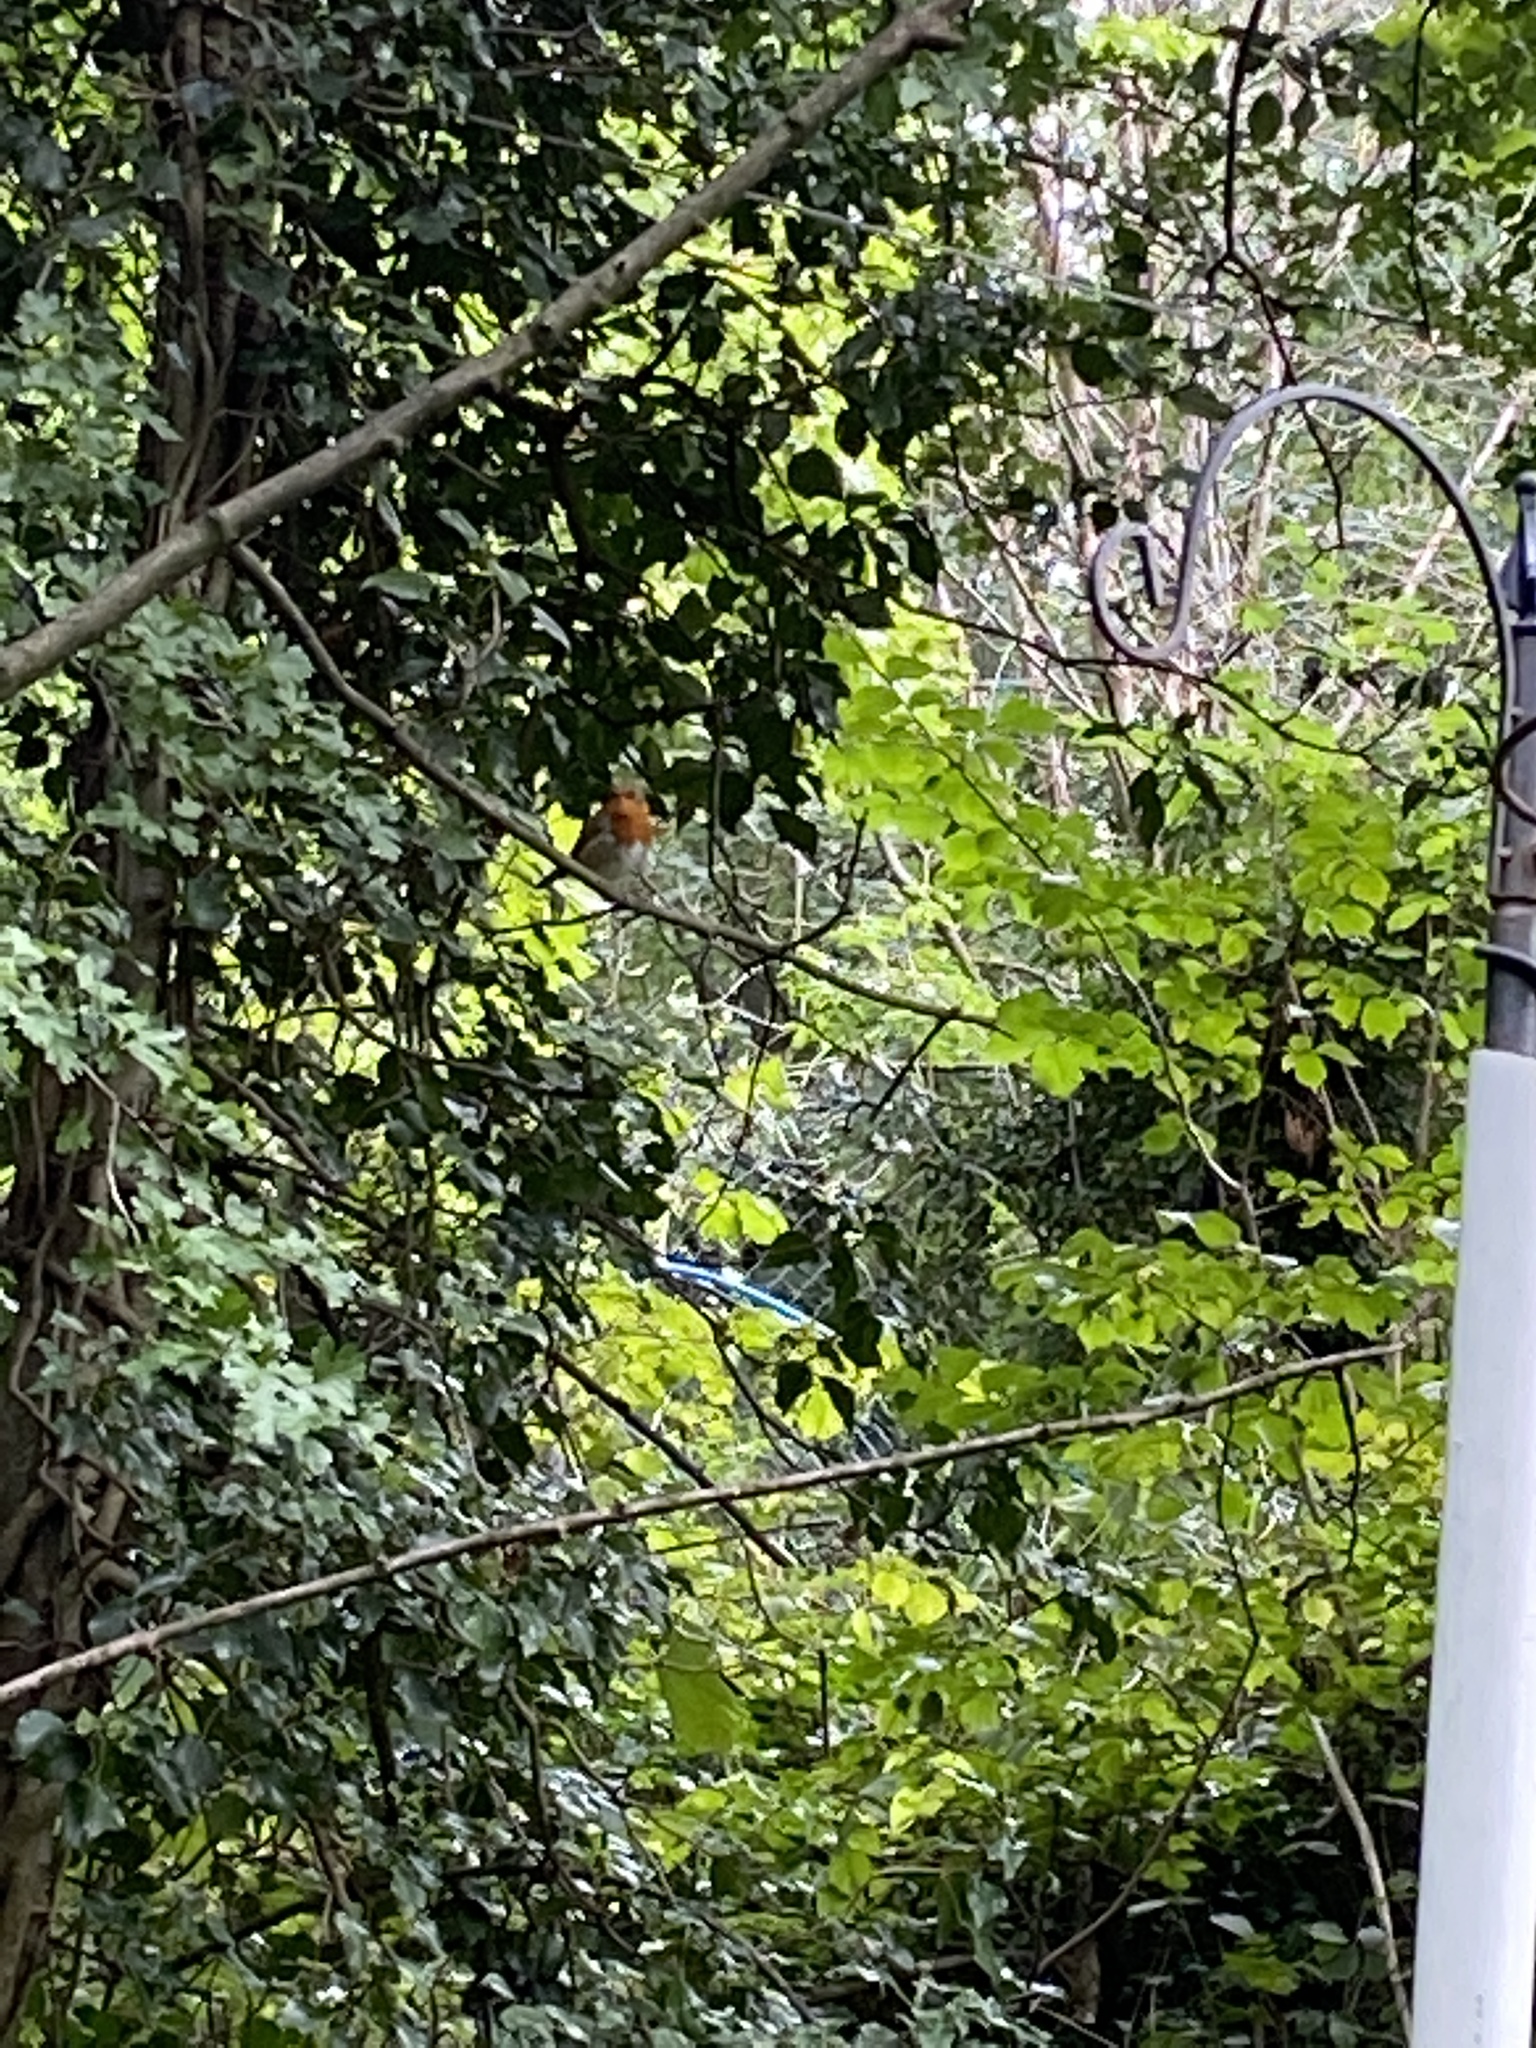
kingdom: Animalia
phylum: Chordata
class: Aves
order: Passeriformes
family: Muscicapidae
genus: Erithacus
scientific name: Erithacus rubecula
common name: European robin
